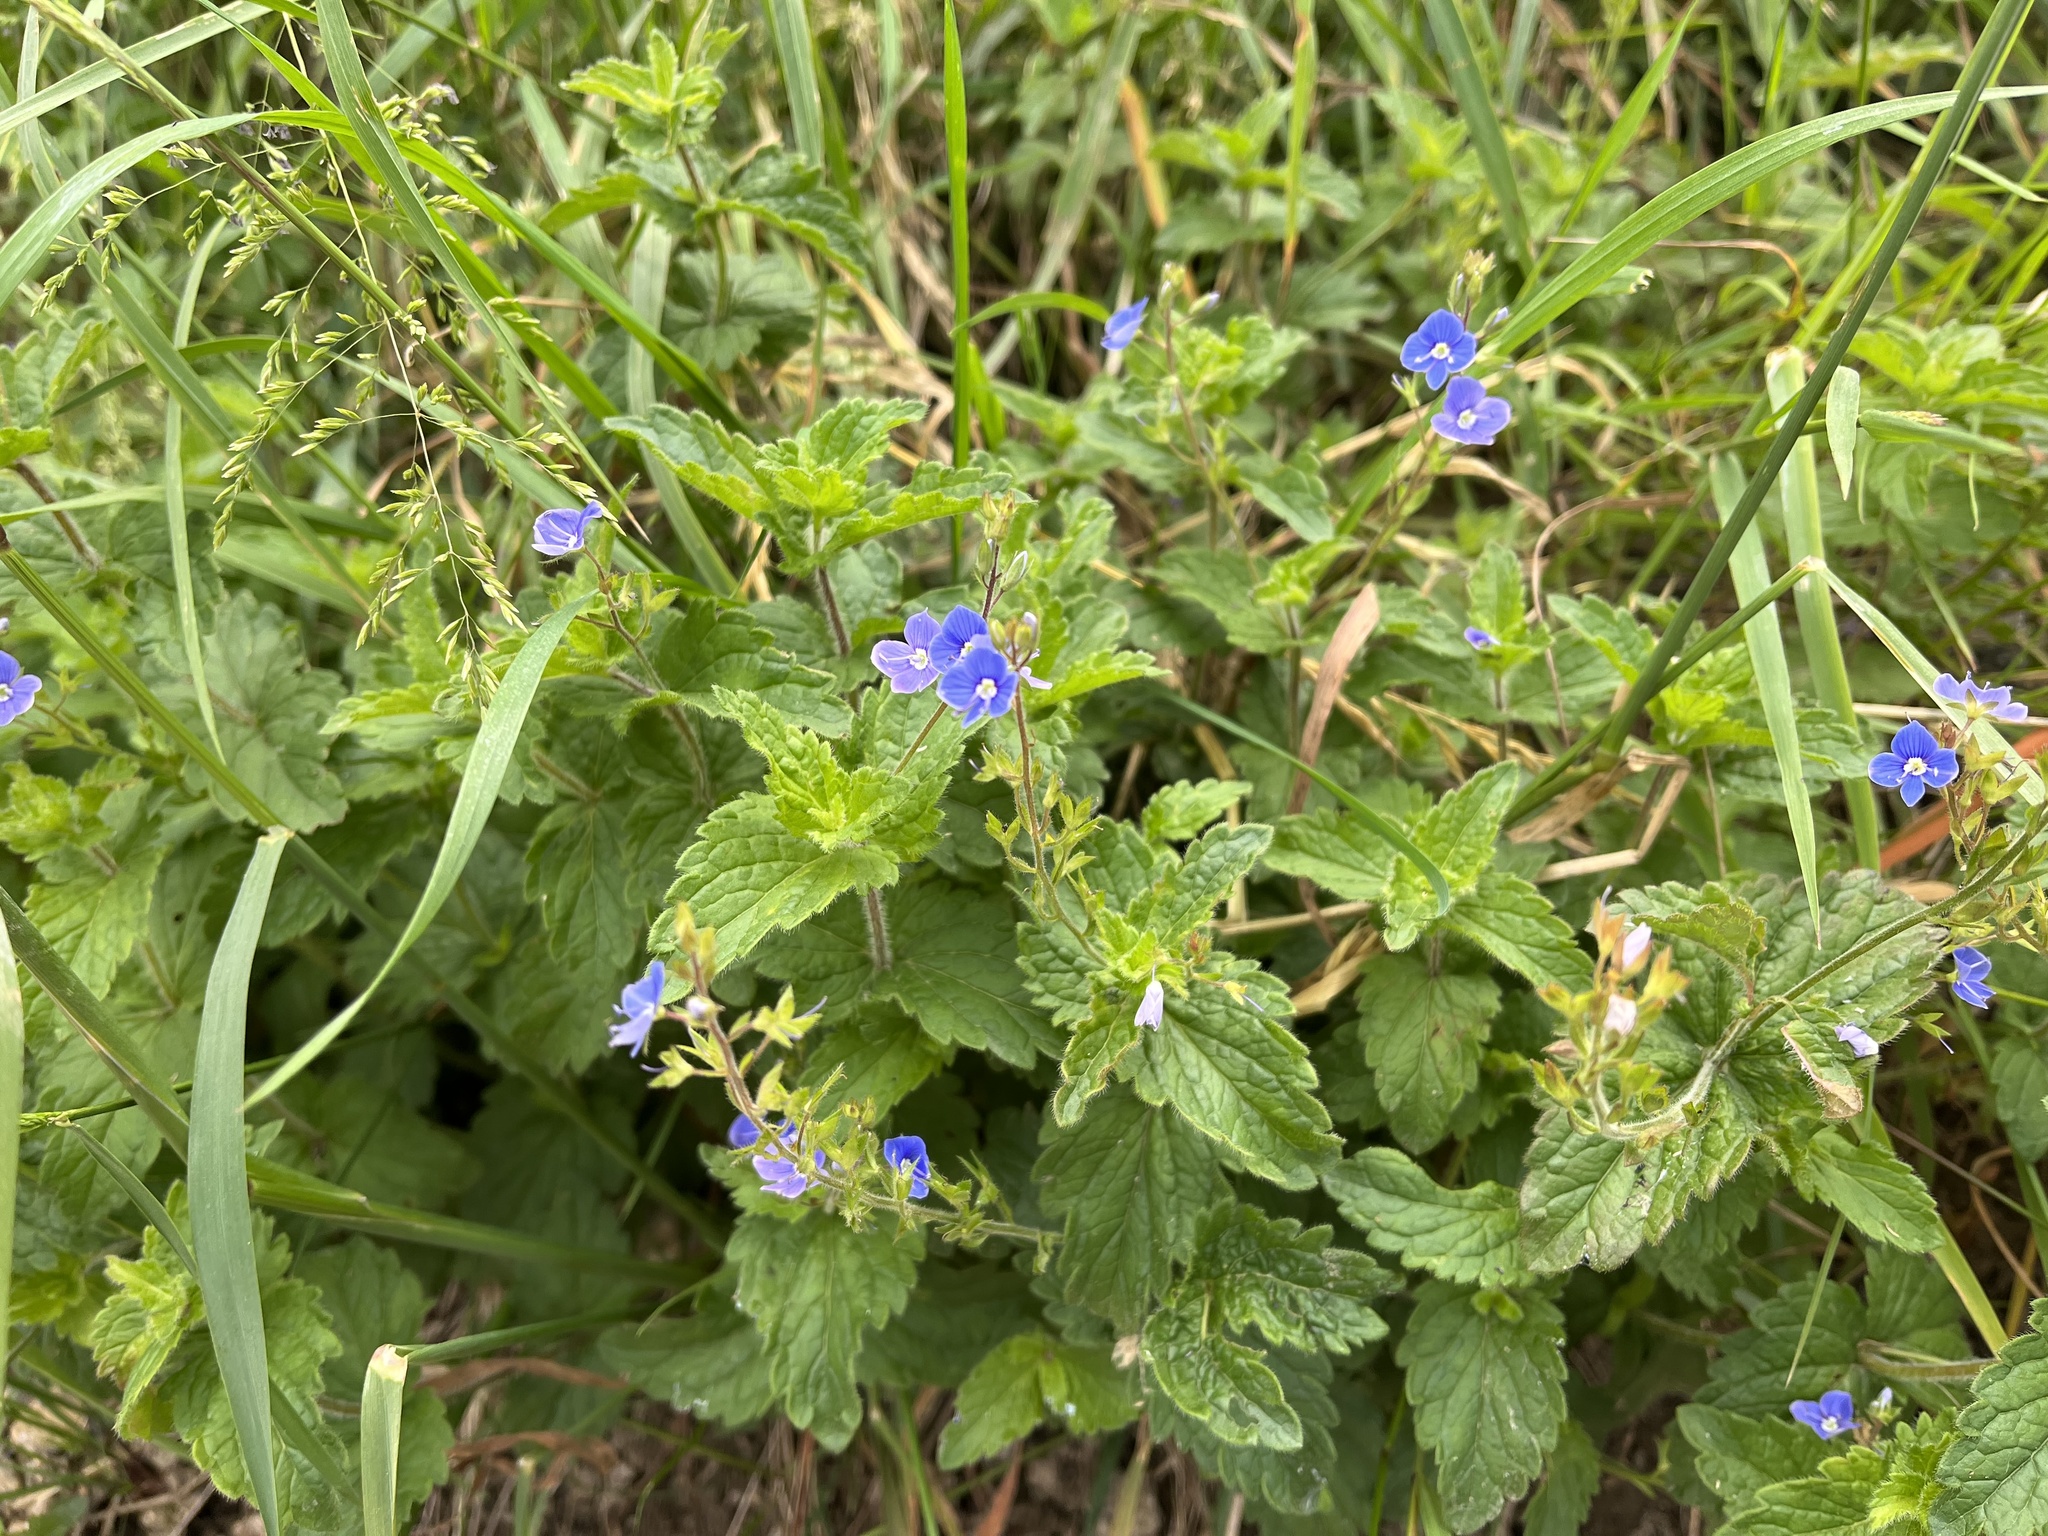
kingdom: Plantae
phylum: Tracheophyta
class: Magnoliopsida
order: Lamiales
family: Plantaginaceae
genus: Veronica
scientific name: Veronica chamaedrys
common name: Germander speedwell
